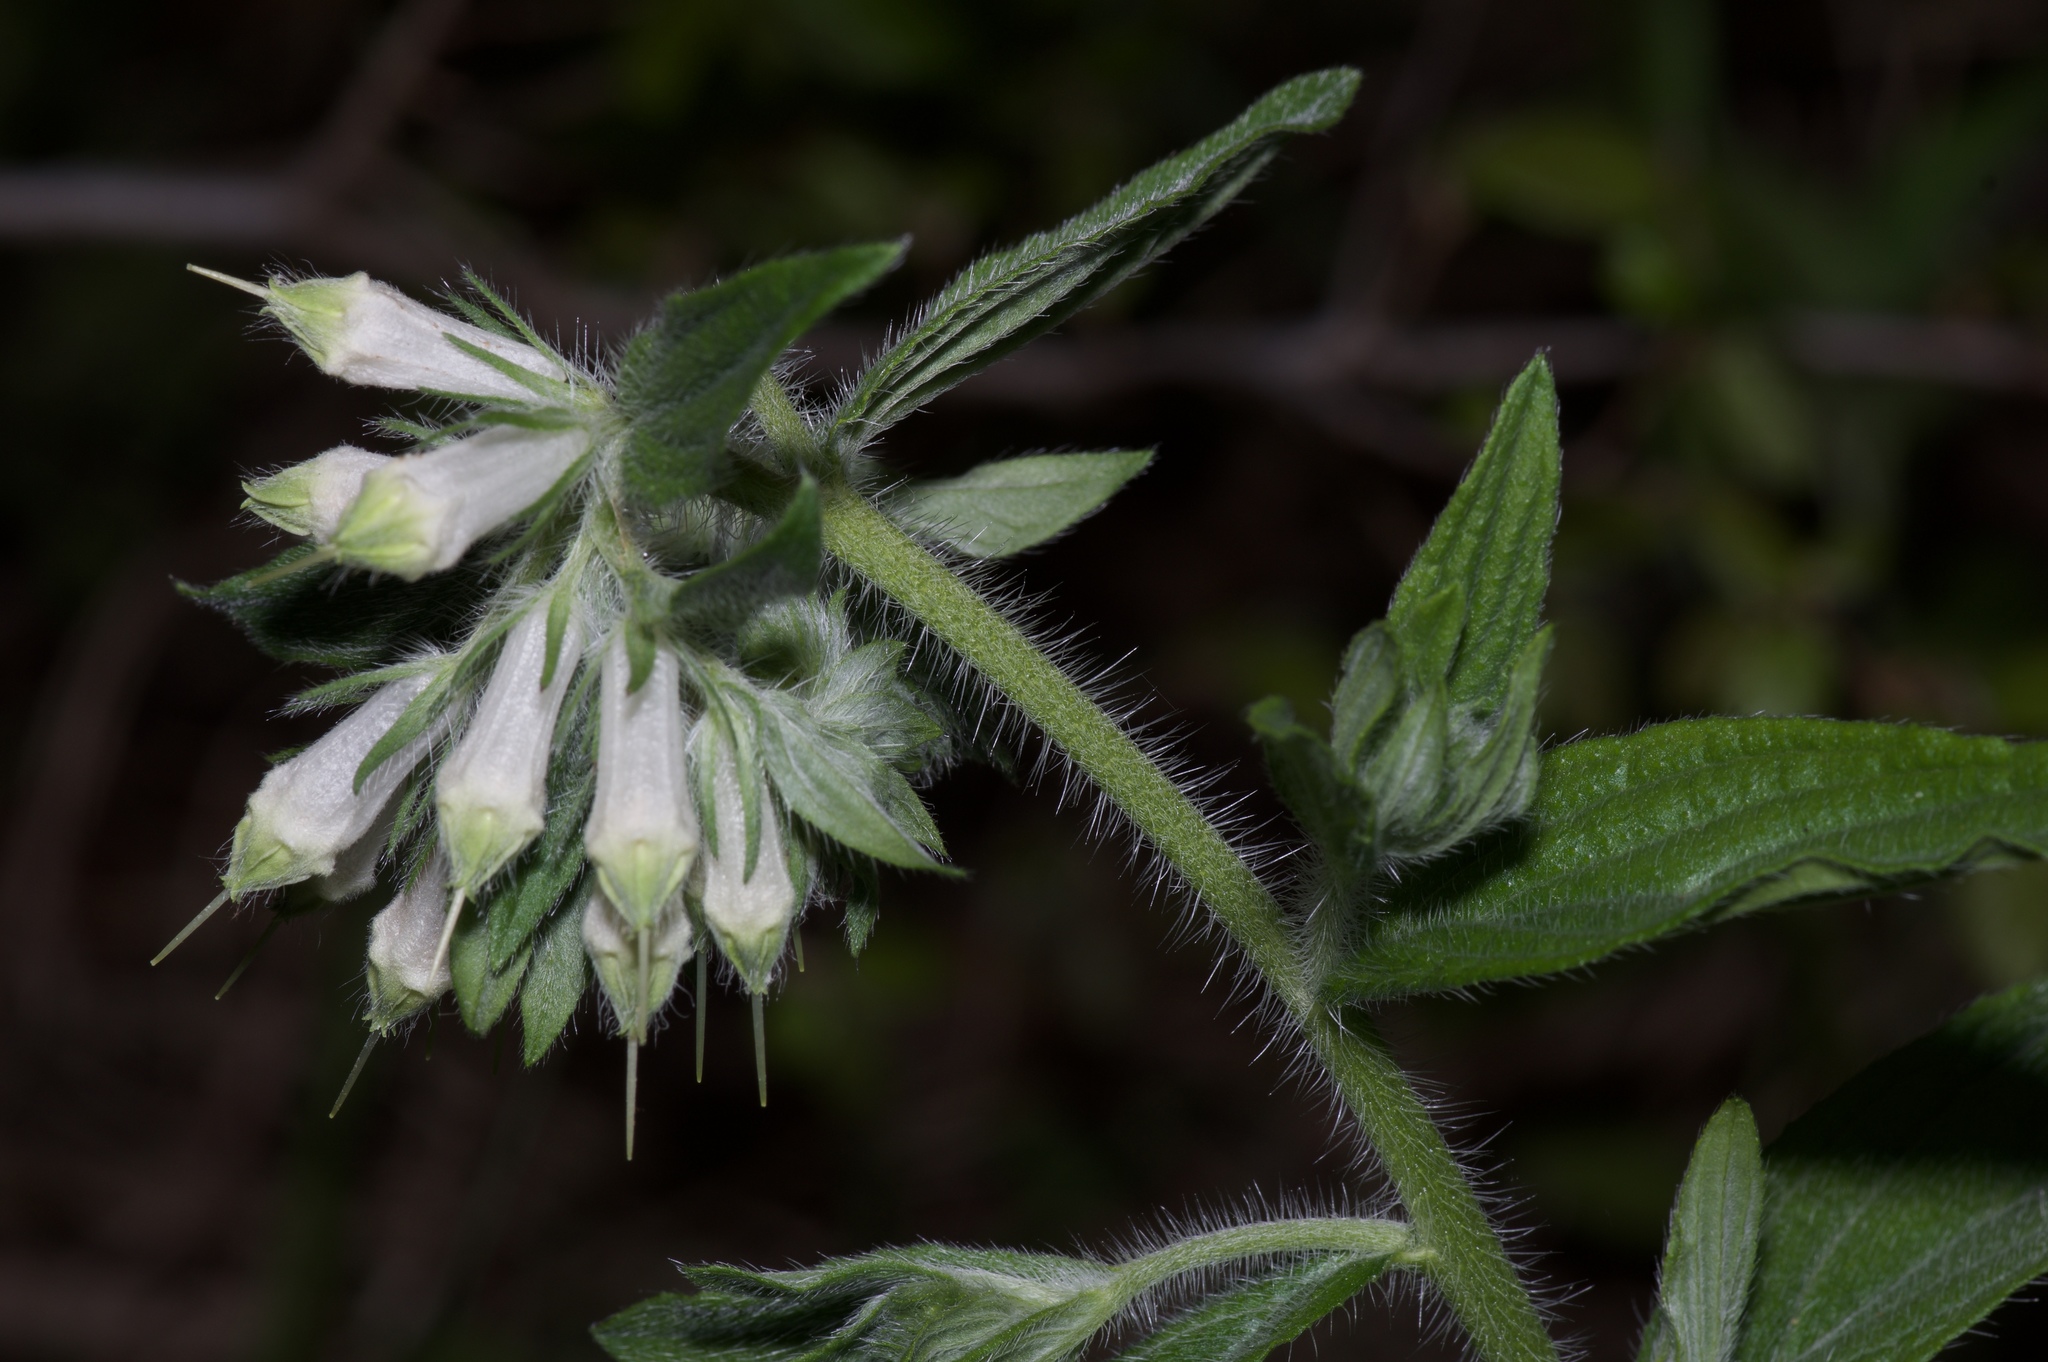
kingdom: Plantae
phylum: Tracheophyta
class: Magnoliopsida
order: Boraginales
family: Boraginaceae
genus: Lithospermum
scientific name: Lithospermum caroliniense
